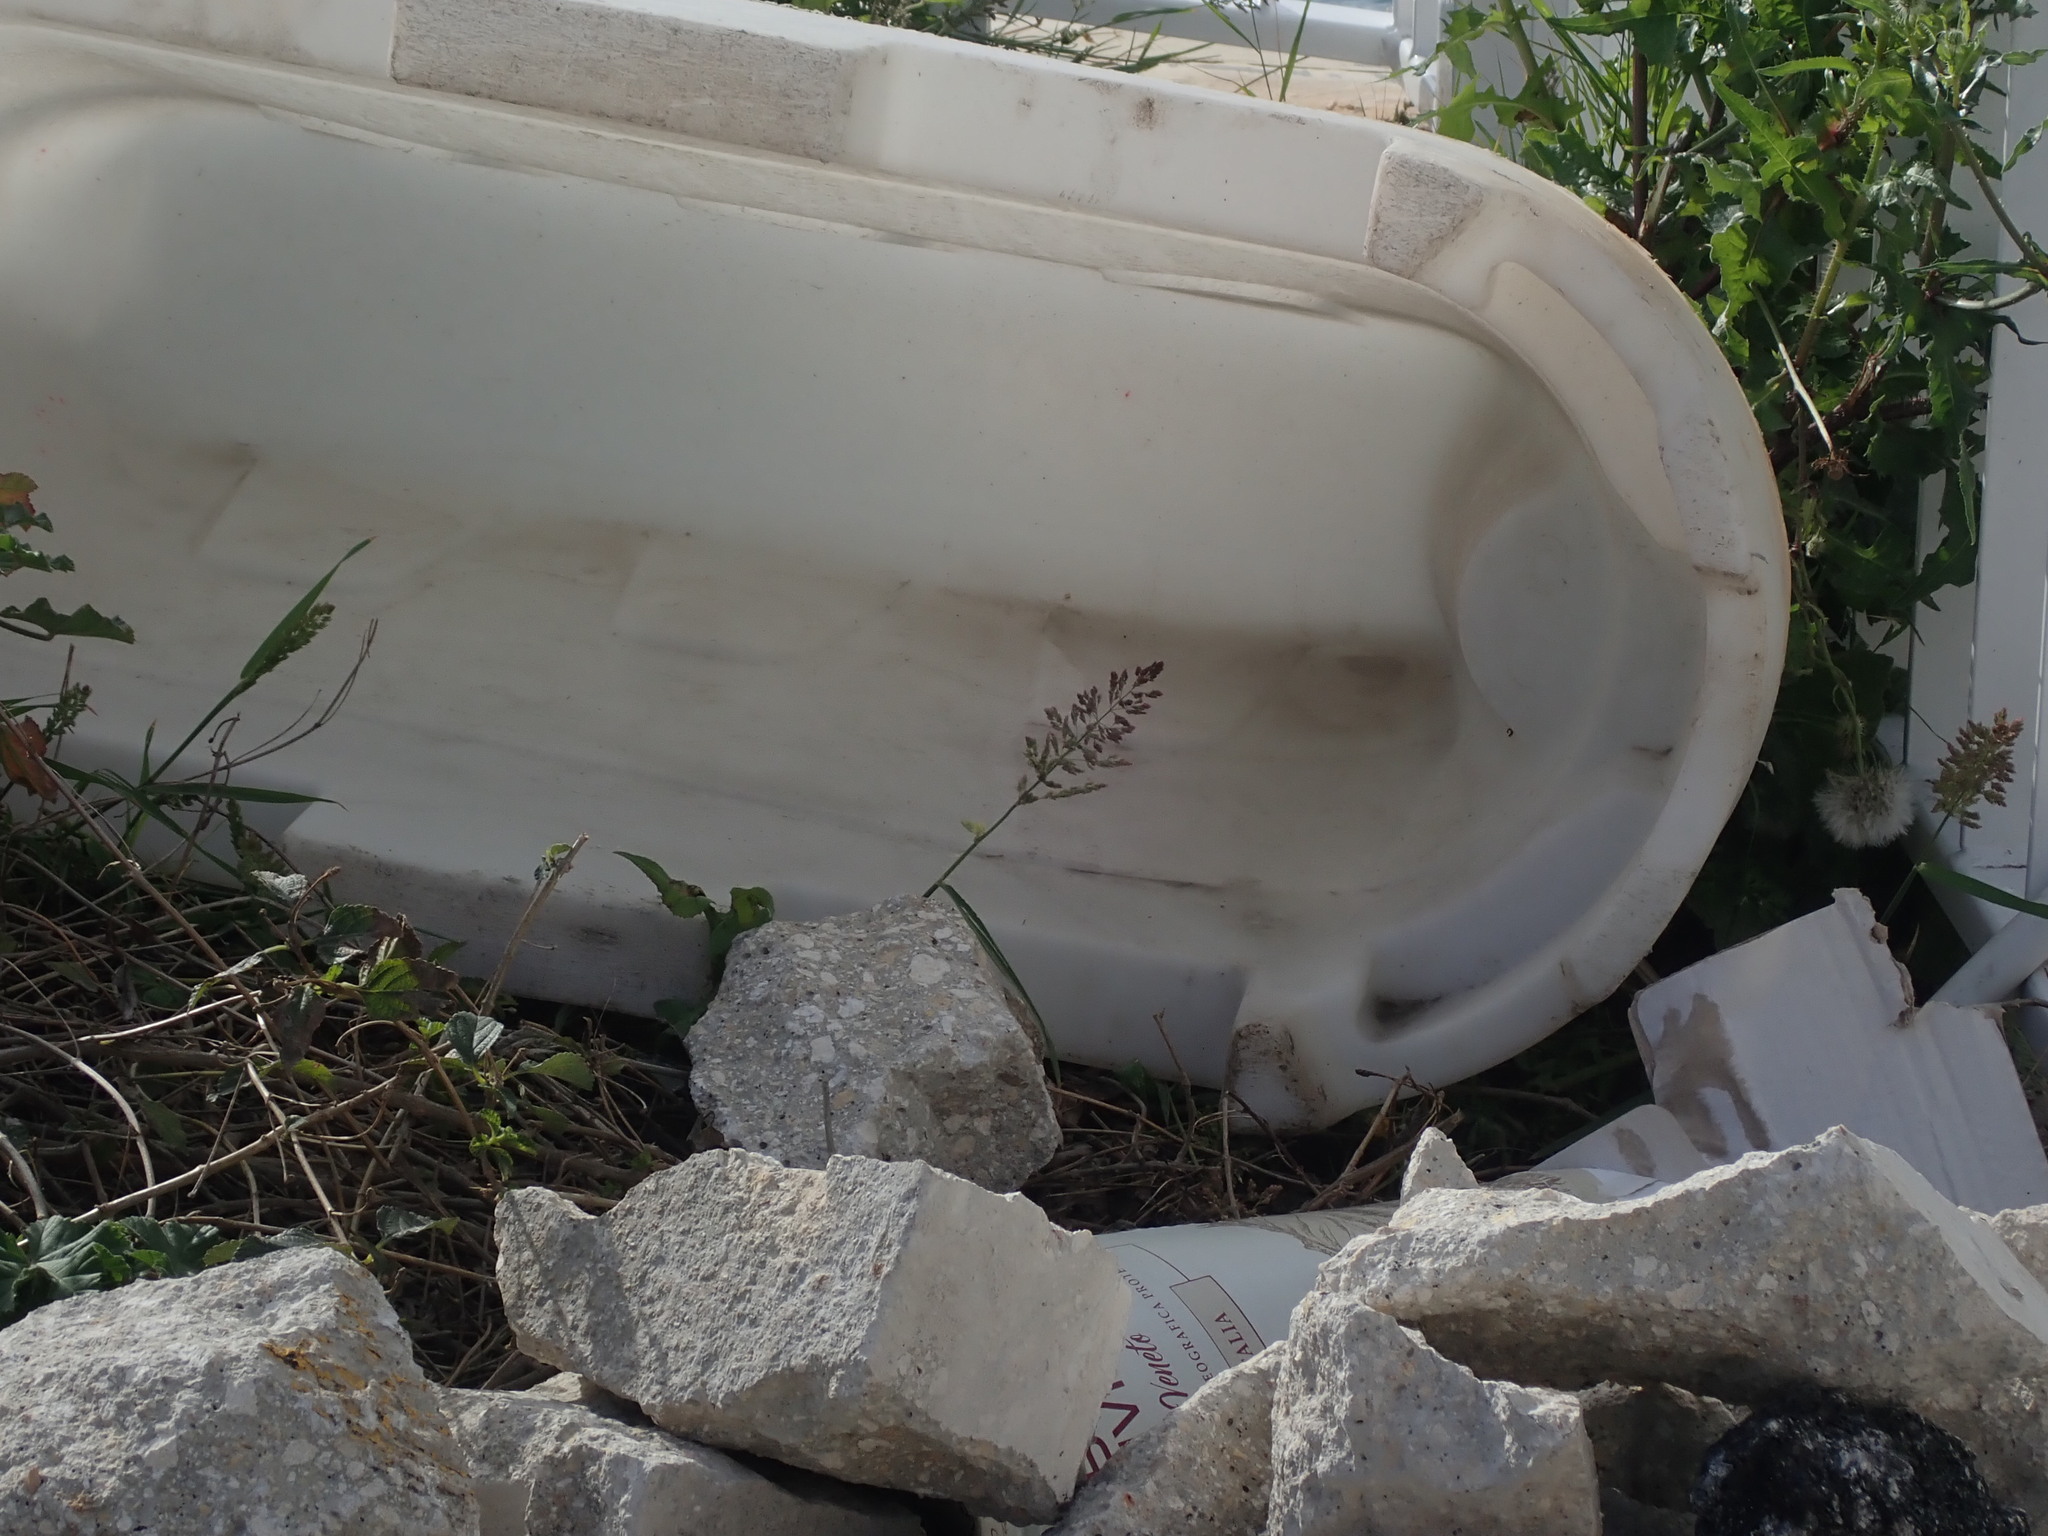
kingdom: Plantae
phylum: Tracheophyta
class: Liliopsida
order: Poales
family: Poaceae
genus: Polypogon
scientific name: Polypogon viridis
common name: Water bent
